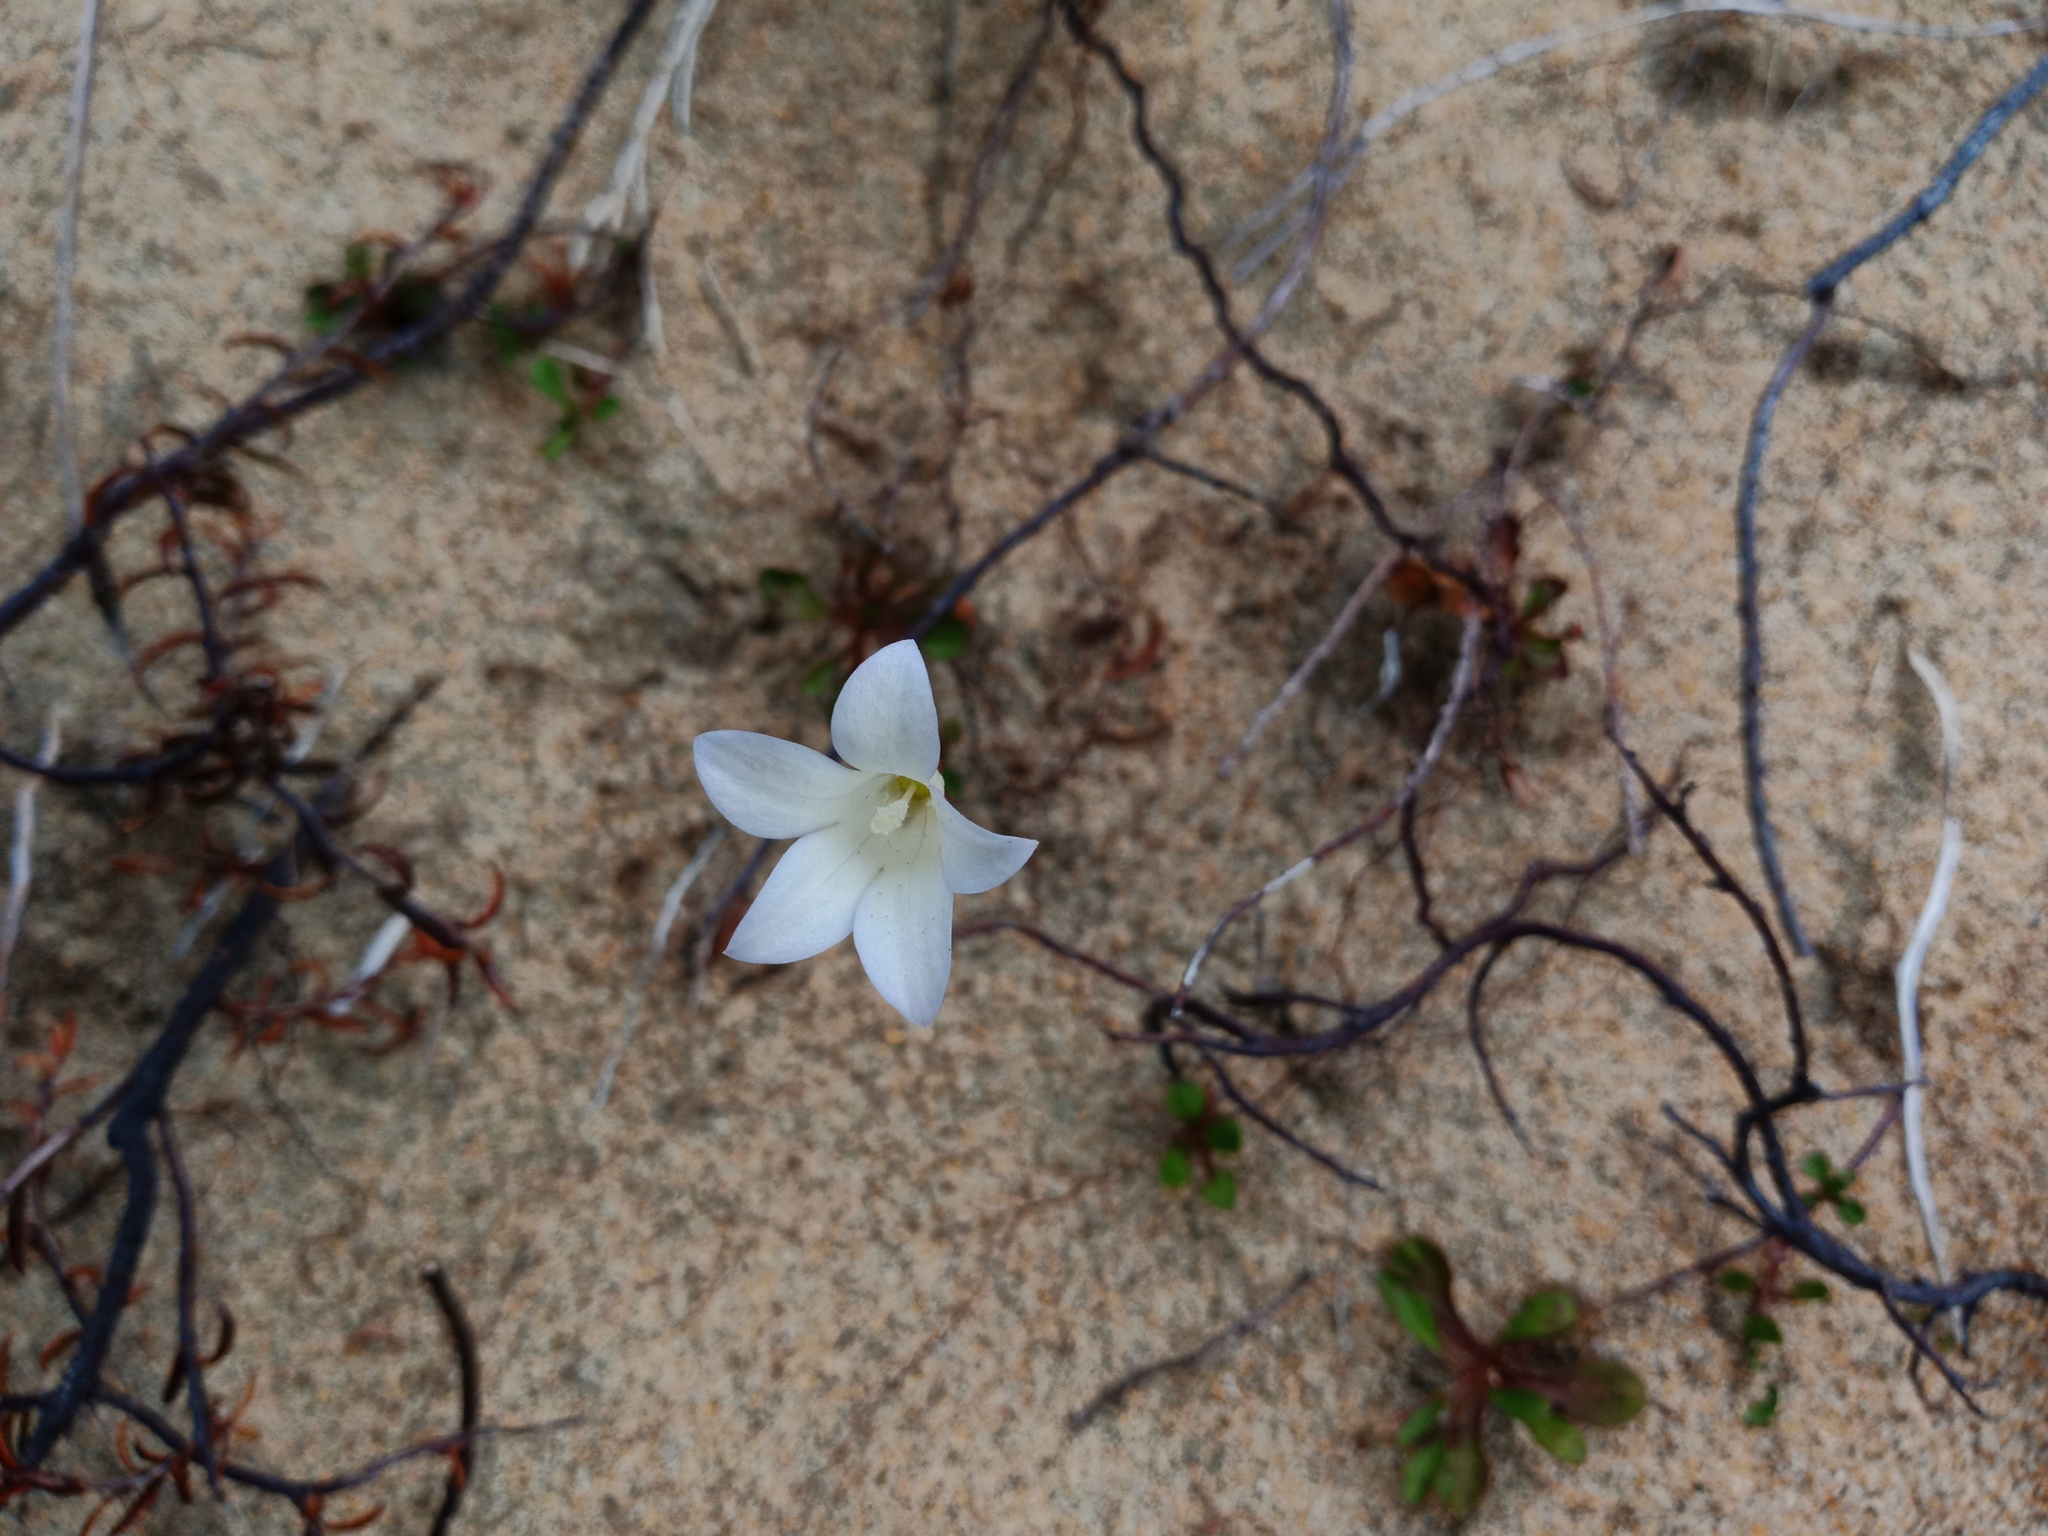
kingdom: Plantae
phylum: Tracheophyta
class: Magnoliopsida
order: Asterales
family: Campanulaceae
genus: Wahlenbergia
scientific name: Wahlenbergia albomarginata
